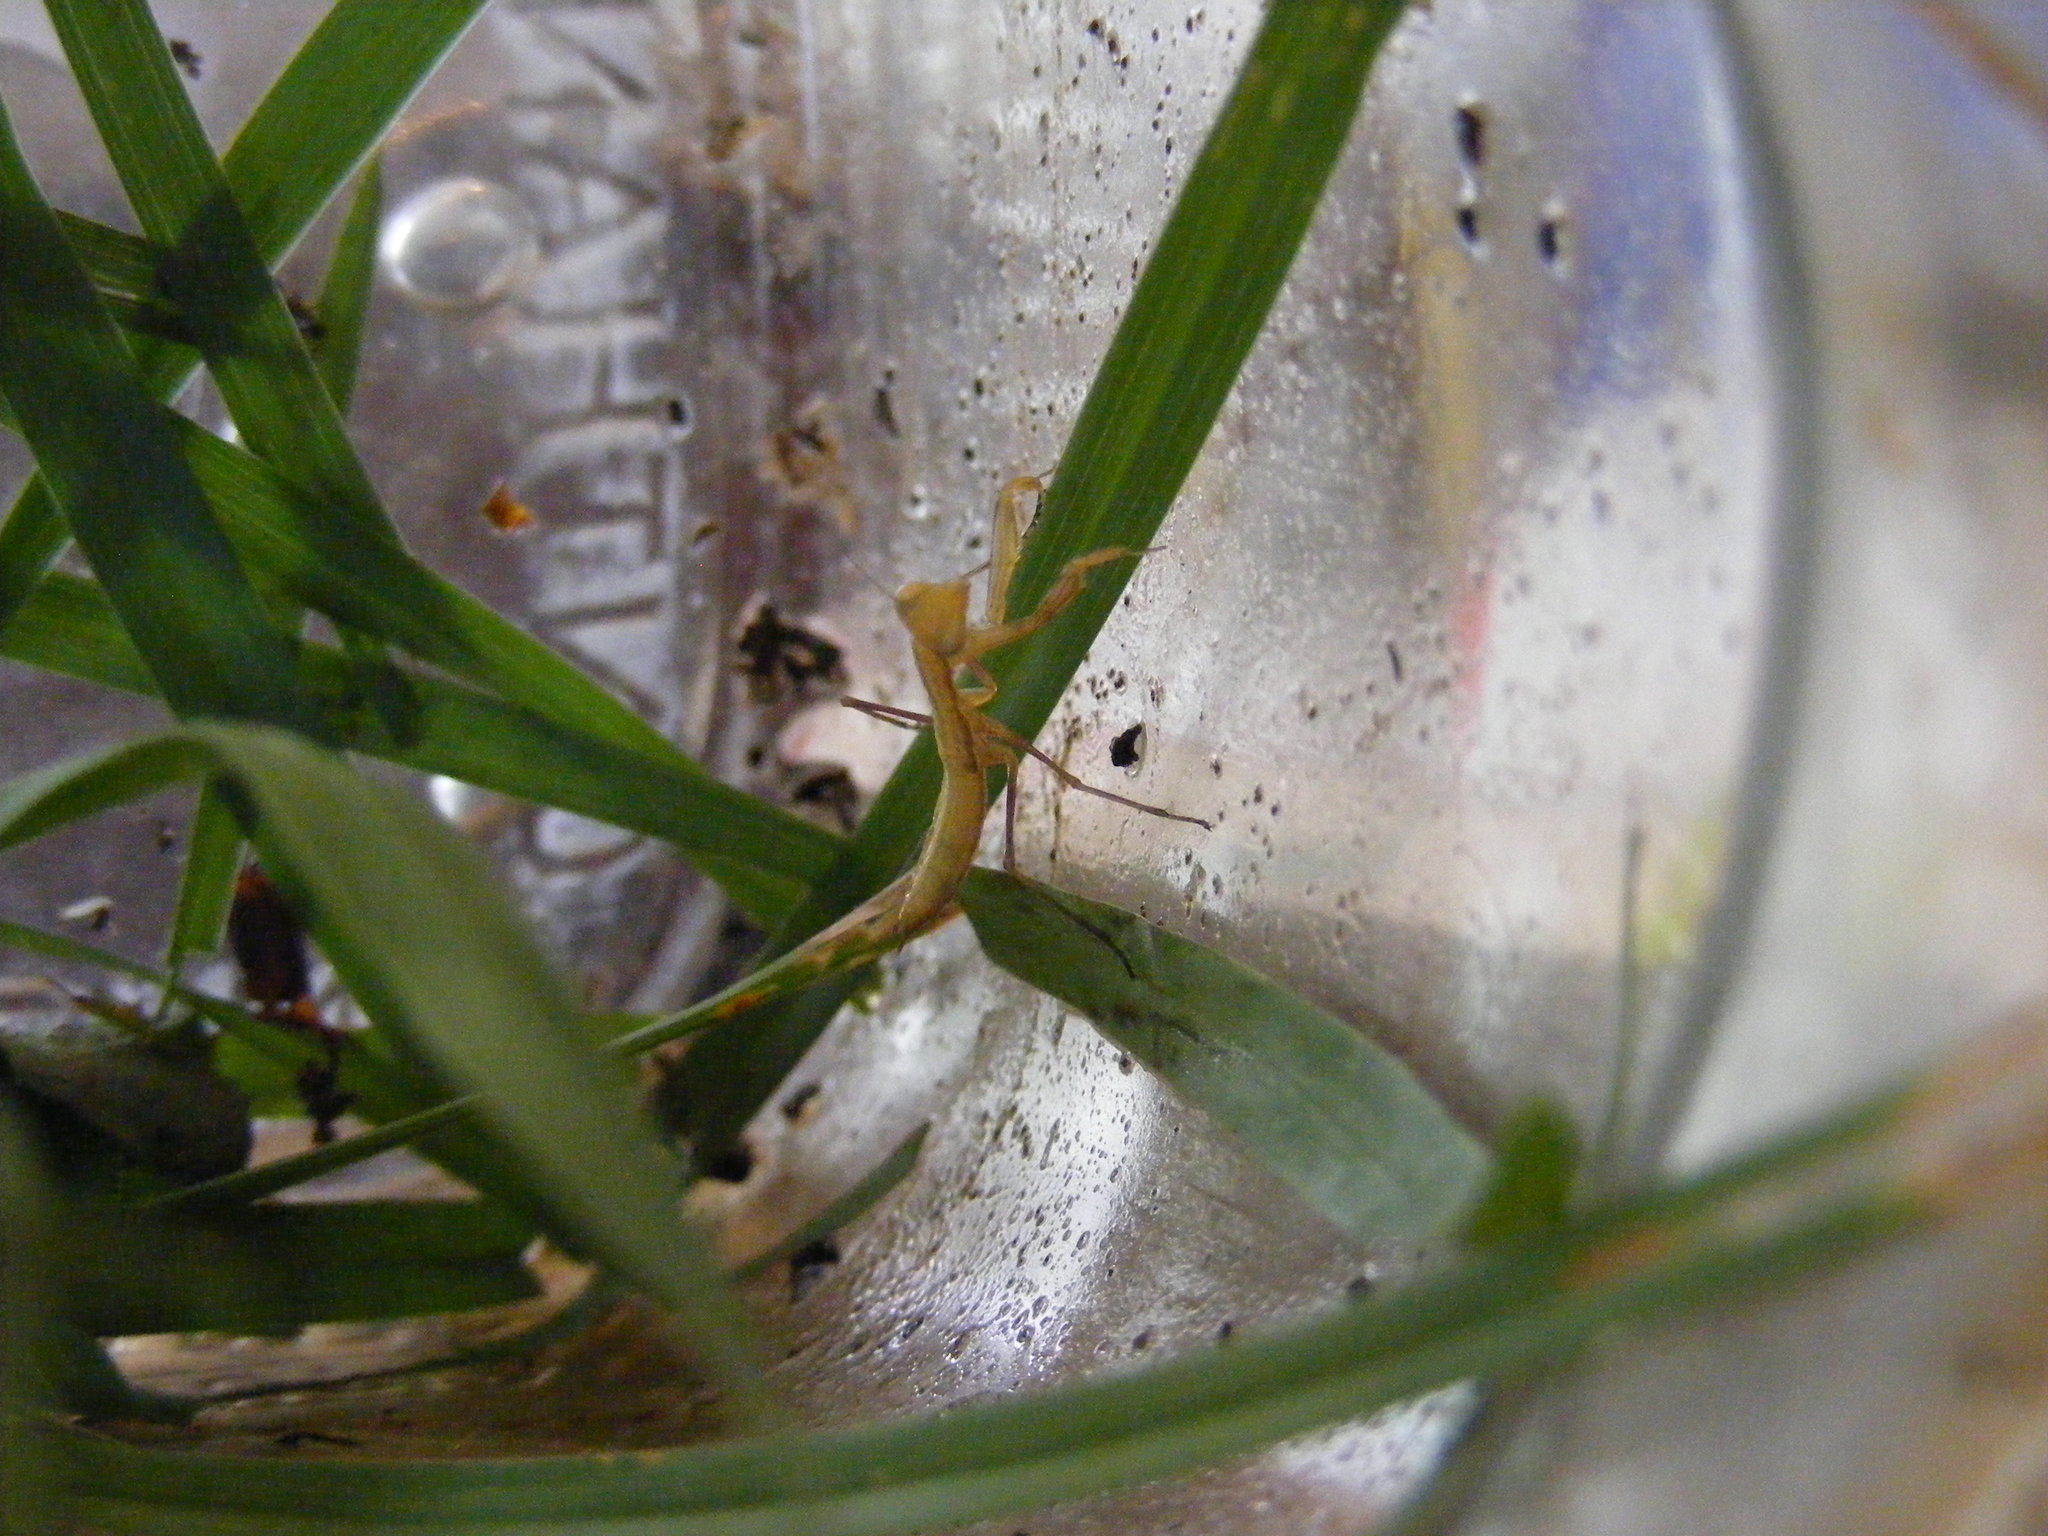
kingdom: Animalia
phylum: Arthropoda
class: Insecta
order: Mantodea
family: Mantidae
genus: Mantis
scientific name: Mantis religiosa
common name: Praying mantis
